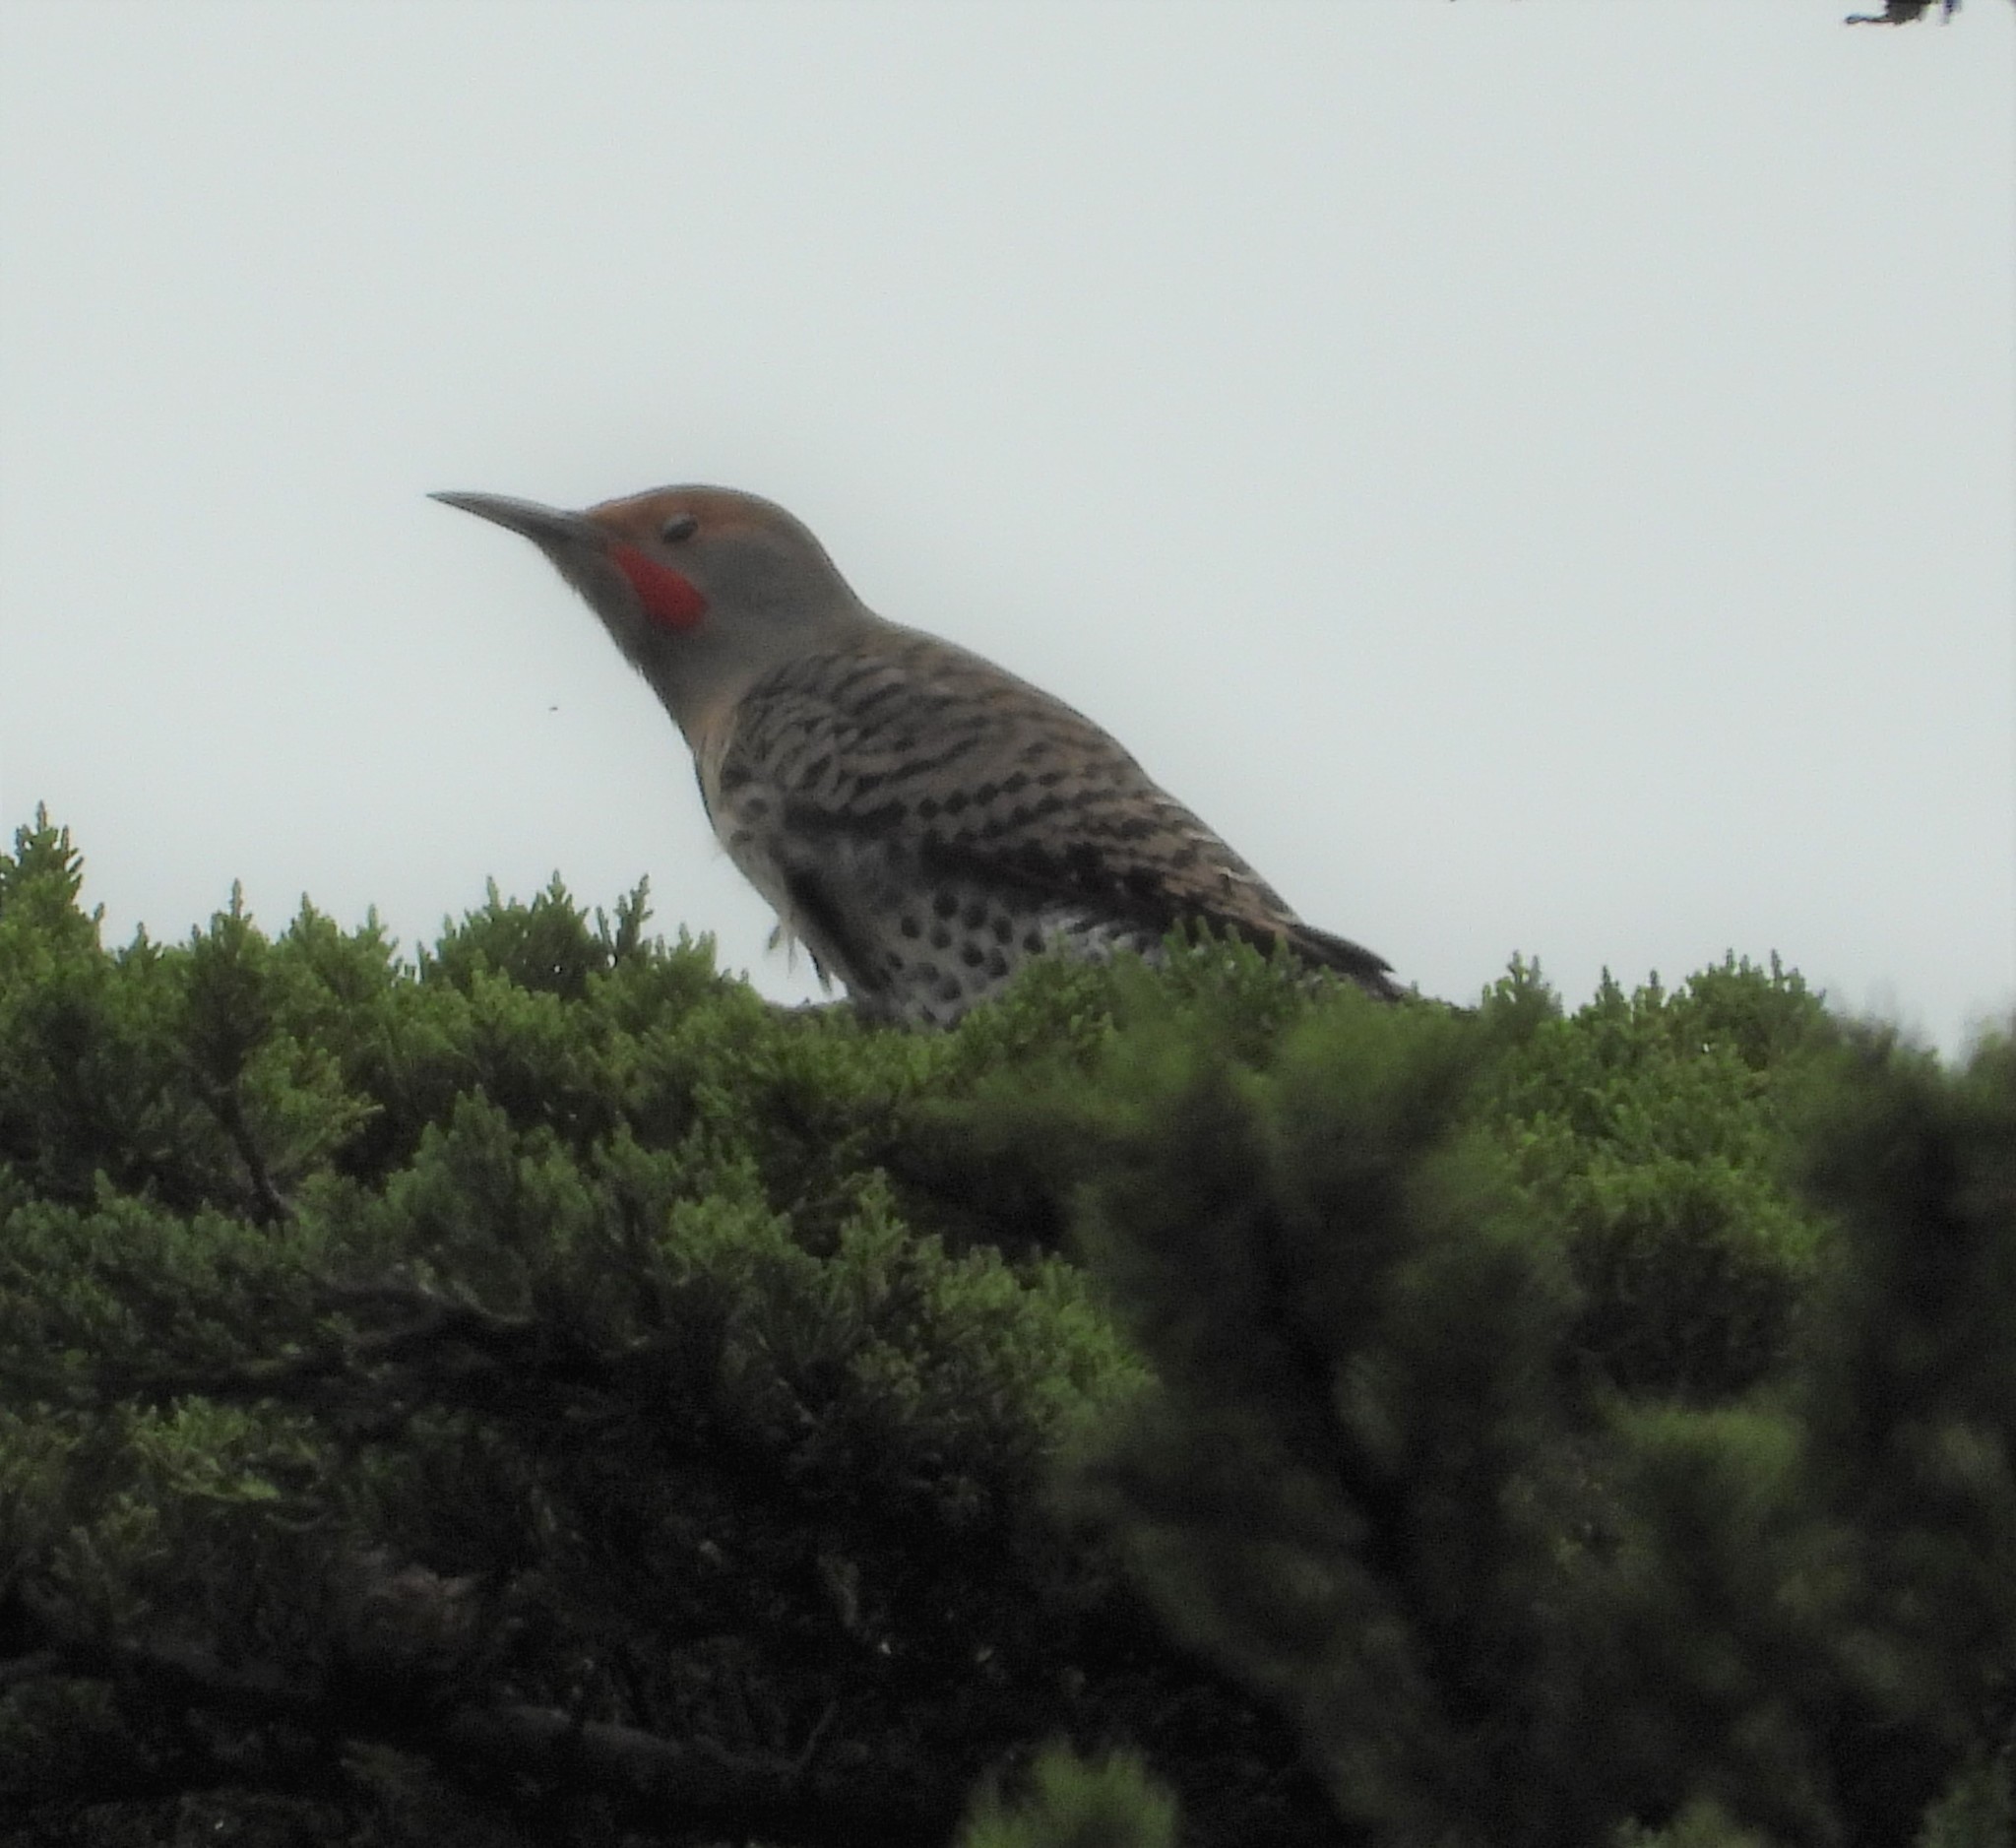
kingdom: Animalia
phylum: Chordata
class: Aves
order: Piciformes
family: Picidae
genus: Colaptes
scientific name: Colaptes auratus
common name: Northern flicker
